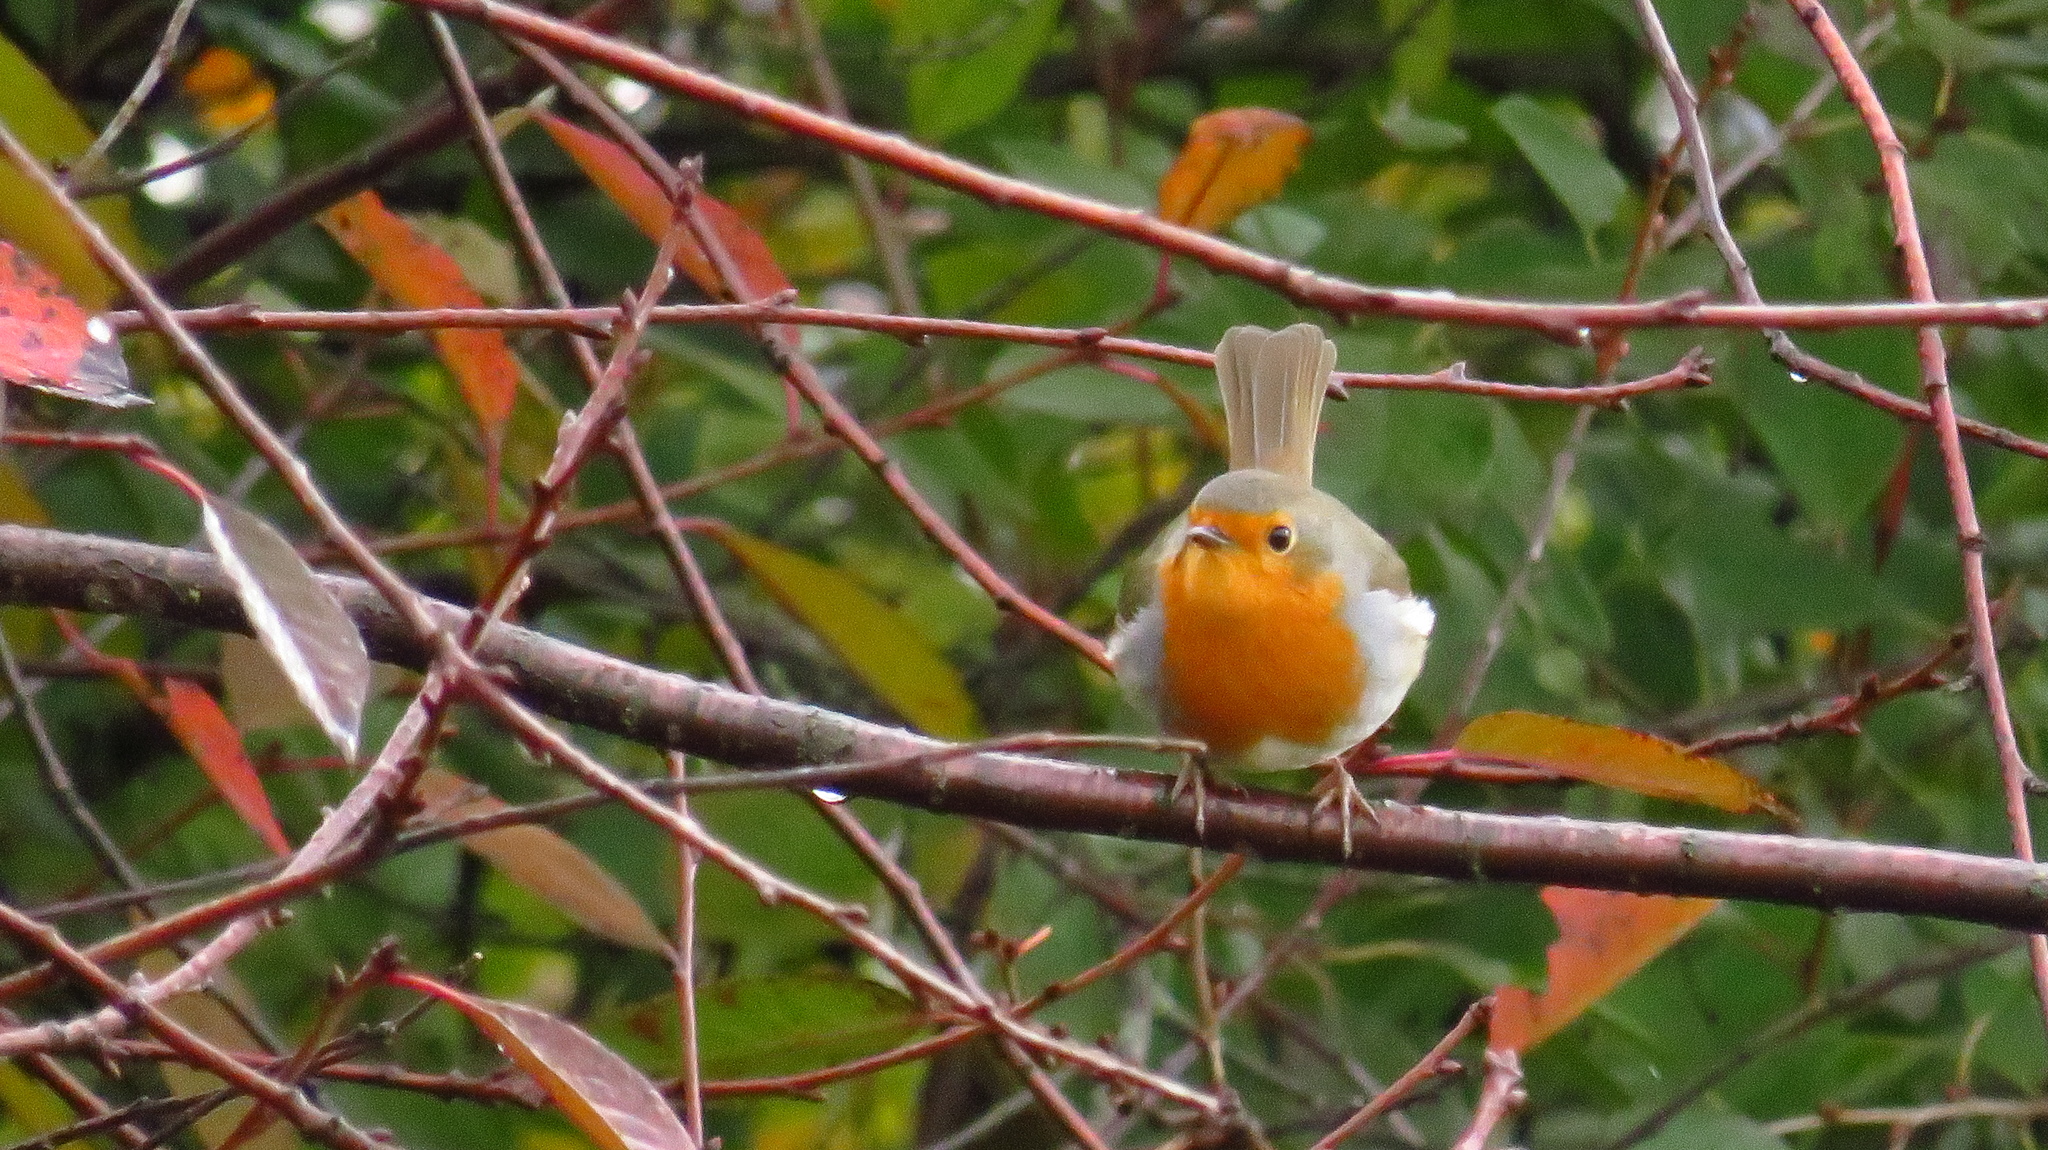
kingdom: Animalia
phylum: Chordata
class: Aves
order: Passeriformes
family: Muscicapidae
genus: Erithacus
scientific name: Erithacus rubecula
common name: European robin
